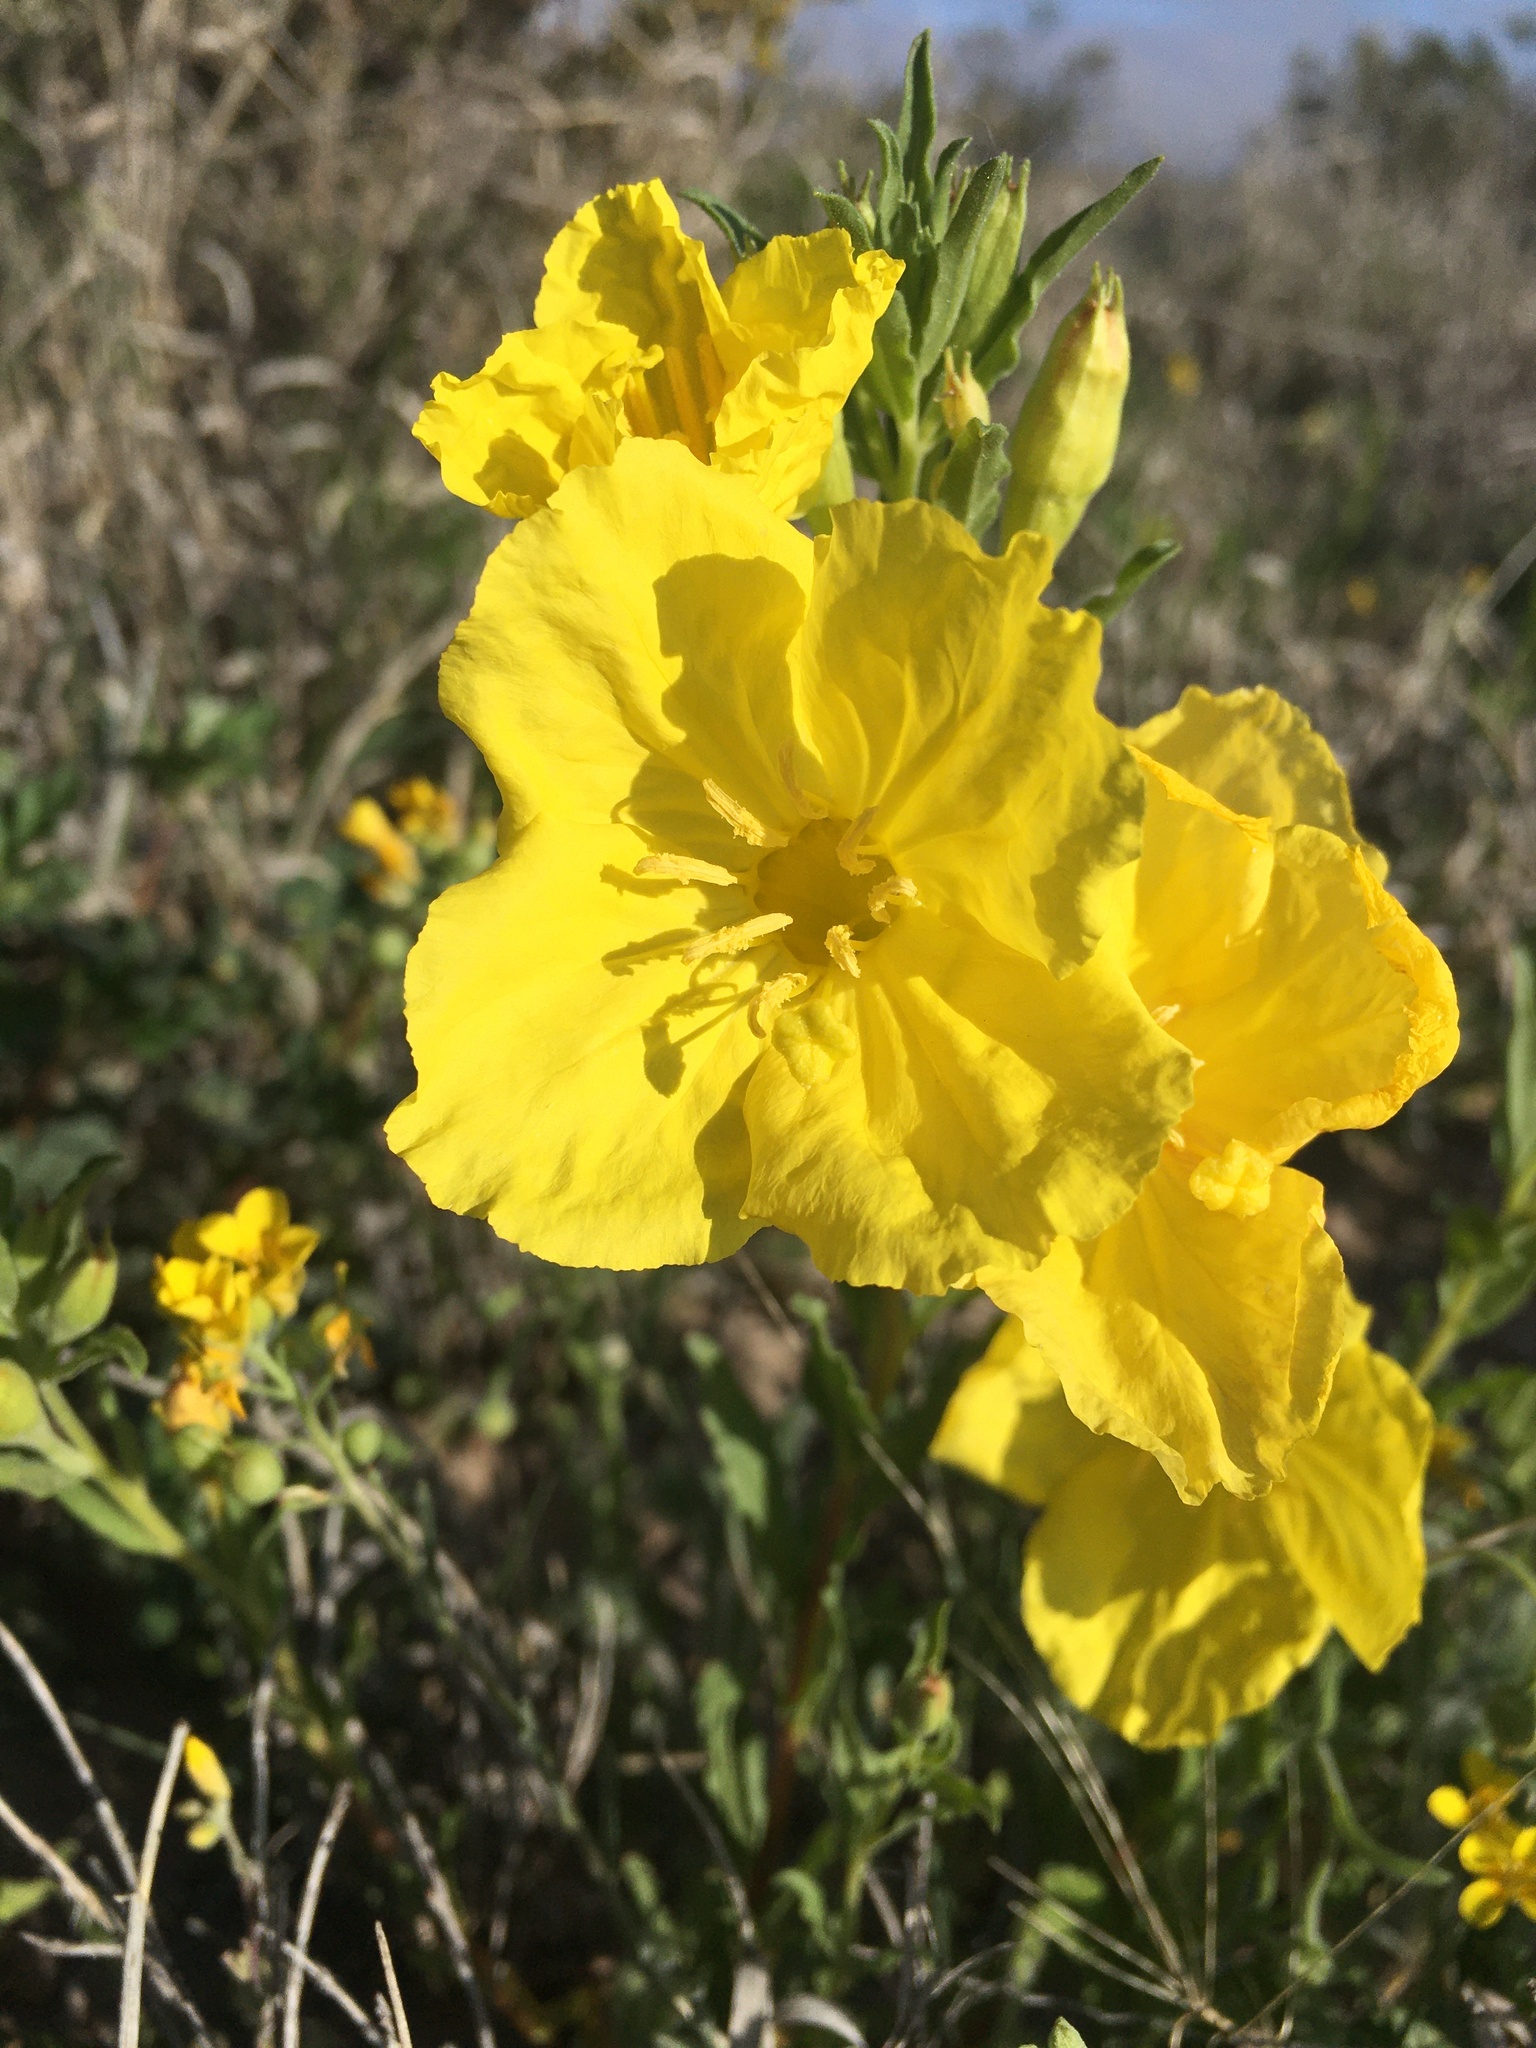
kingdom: Plantae
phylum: Tracheophyta
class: Magnoliopsida
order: Myrtales
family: Onagraceae
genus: Oenothera
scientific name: Oenothera tubicula
